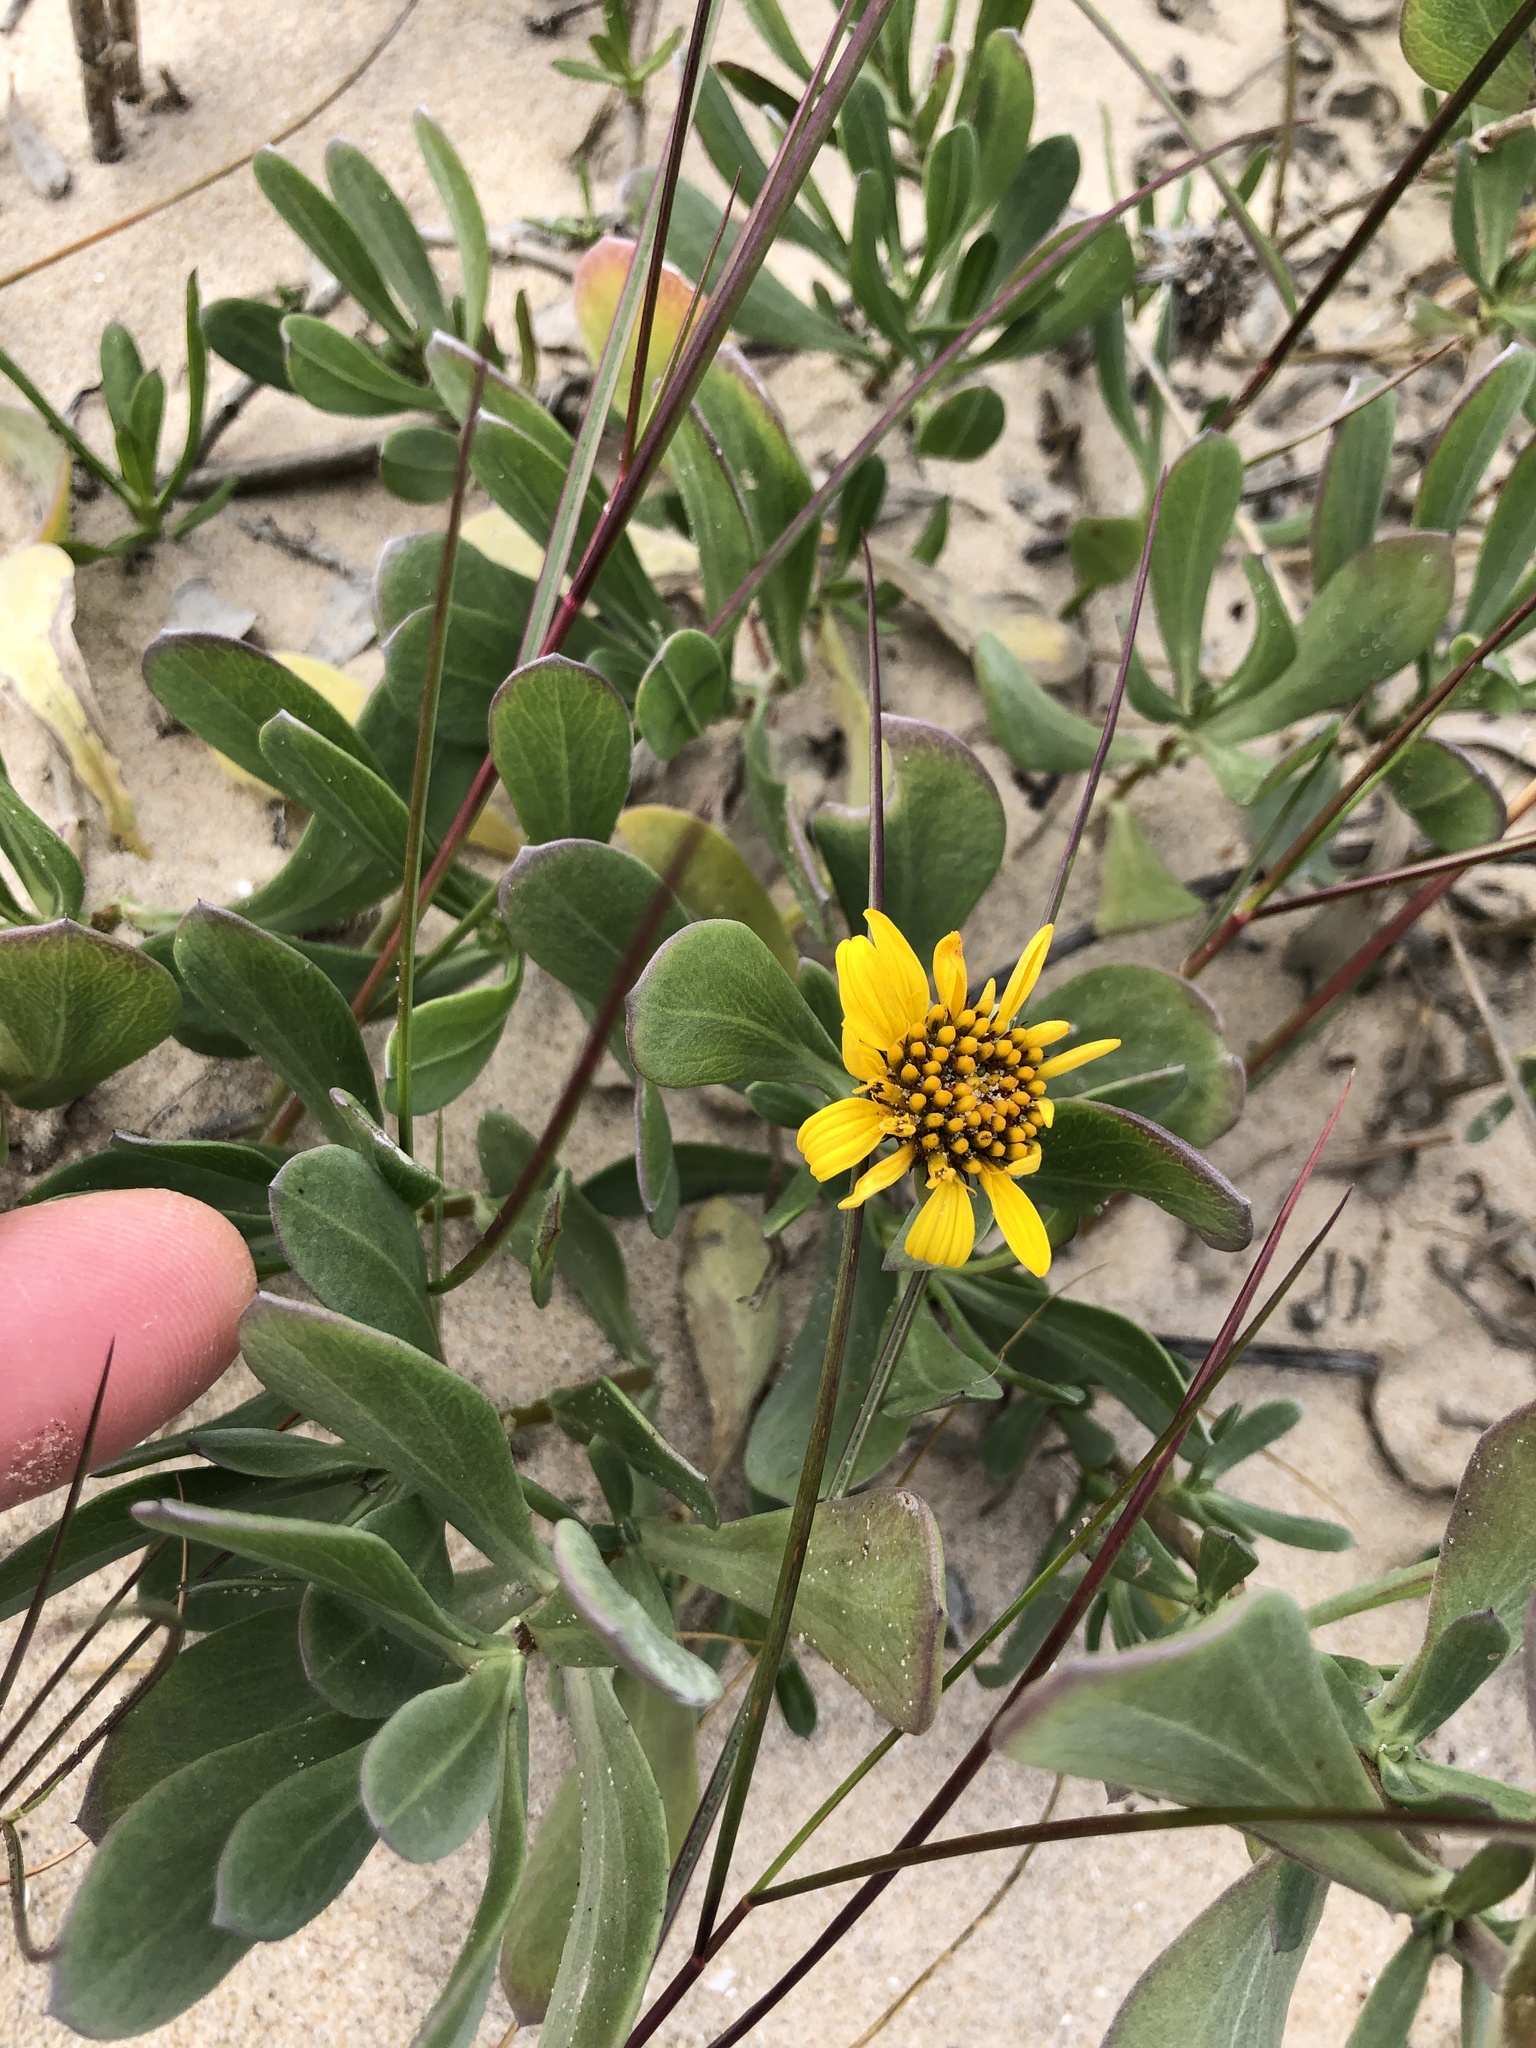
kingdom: Plantae
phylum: Tracheophyta
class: Magnoliopsida
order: Asterales
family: Asteraceae
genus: Borrichia
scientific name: Borrichia frutescens
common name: Sea oxeye
